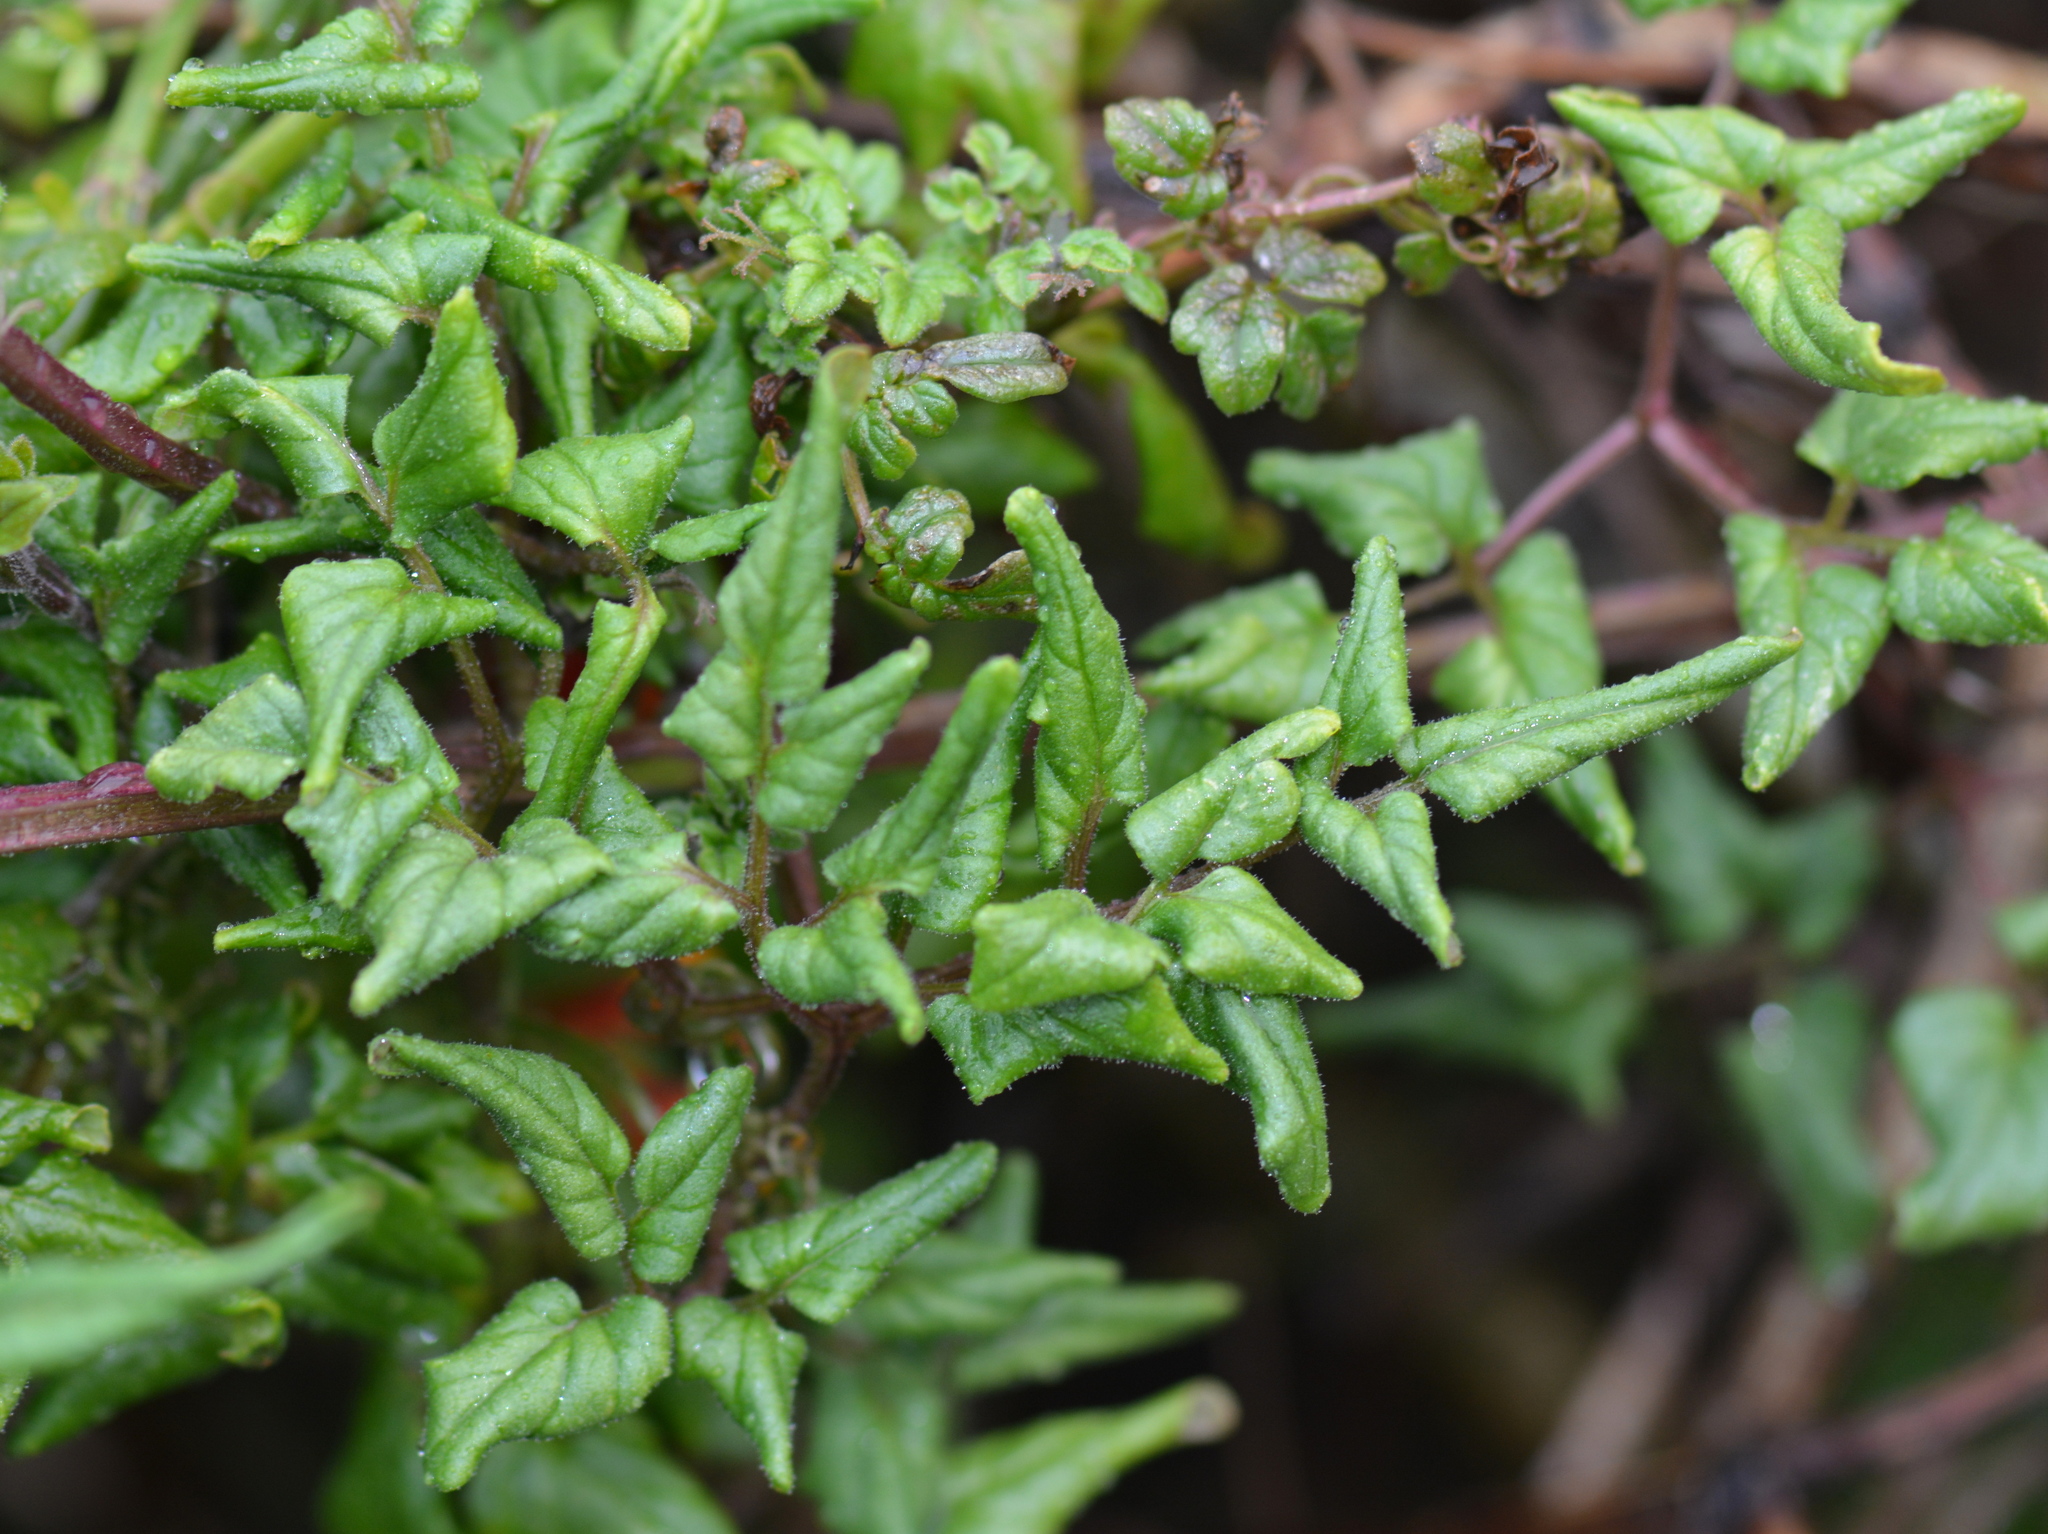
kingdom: Plantae
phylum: Tracheophyta
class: Magnoliopsida
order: Lamiales
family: Bignoniaceae
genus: Eccremocarpus
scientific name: Eccremocarpus scaber
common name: Chilean glory-flower
